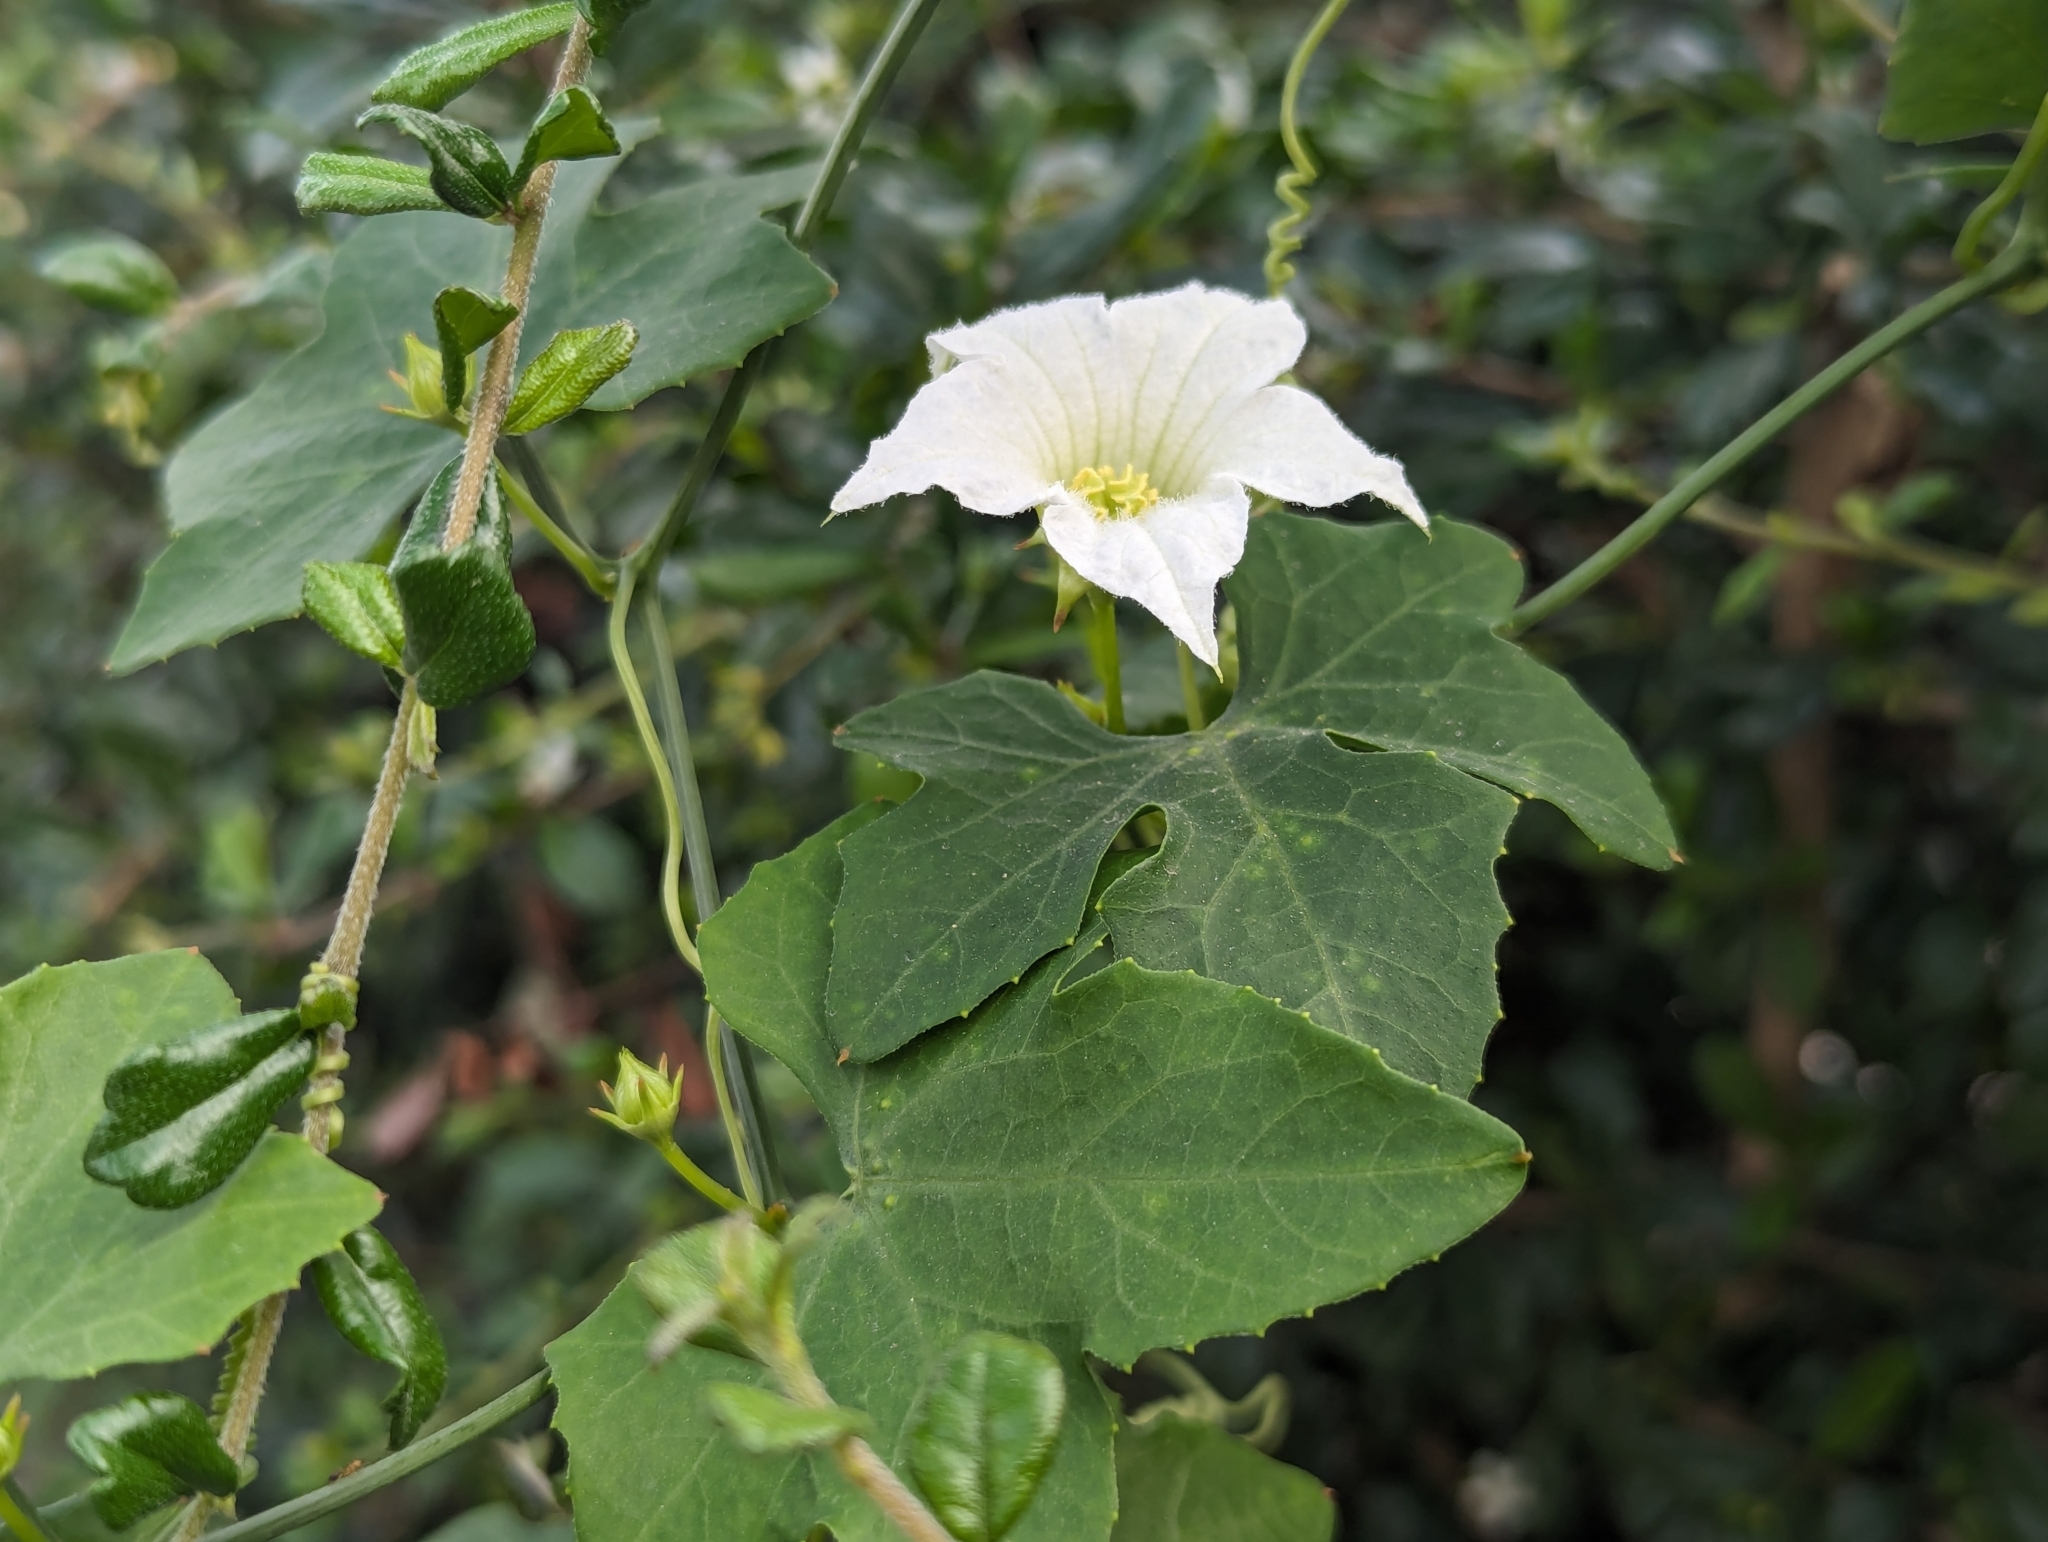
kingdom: Plantae
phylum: Tracheophyta
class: Magnoliopsida
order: Cucurbitales
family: Cucurbitaceae
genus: Coccinia
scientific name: Coccinia grandis
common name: Ivy gourd
